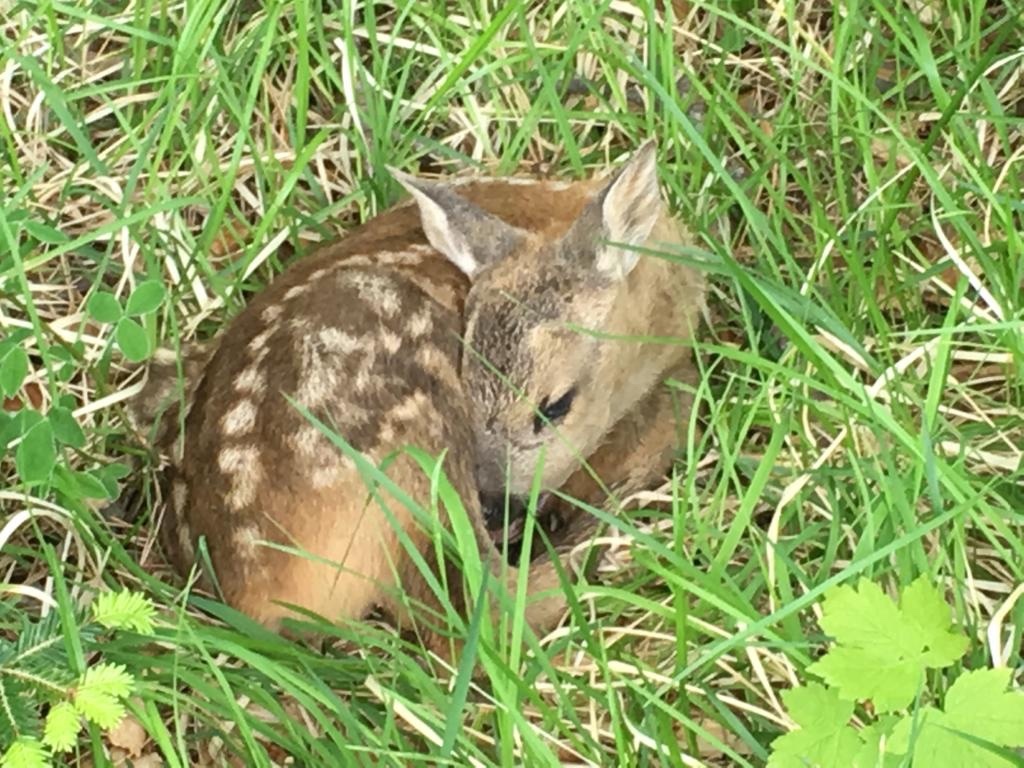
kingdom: Animalia
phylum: Chordata
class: Mammalia
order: Artiodactyla
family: Cervidae
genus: Capreolus
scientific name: Capreolus capreolus
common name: Western roe deer
